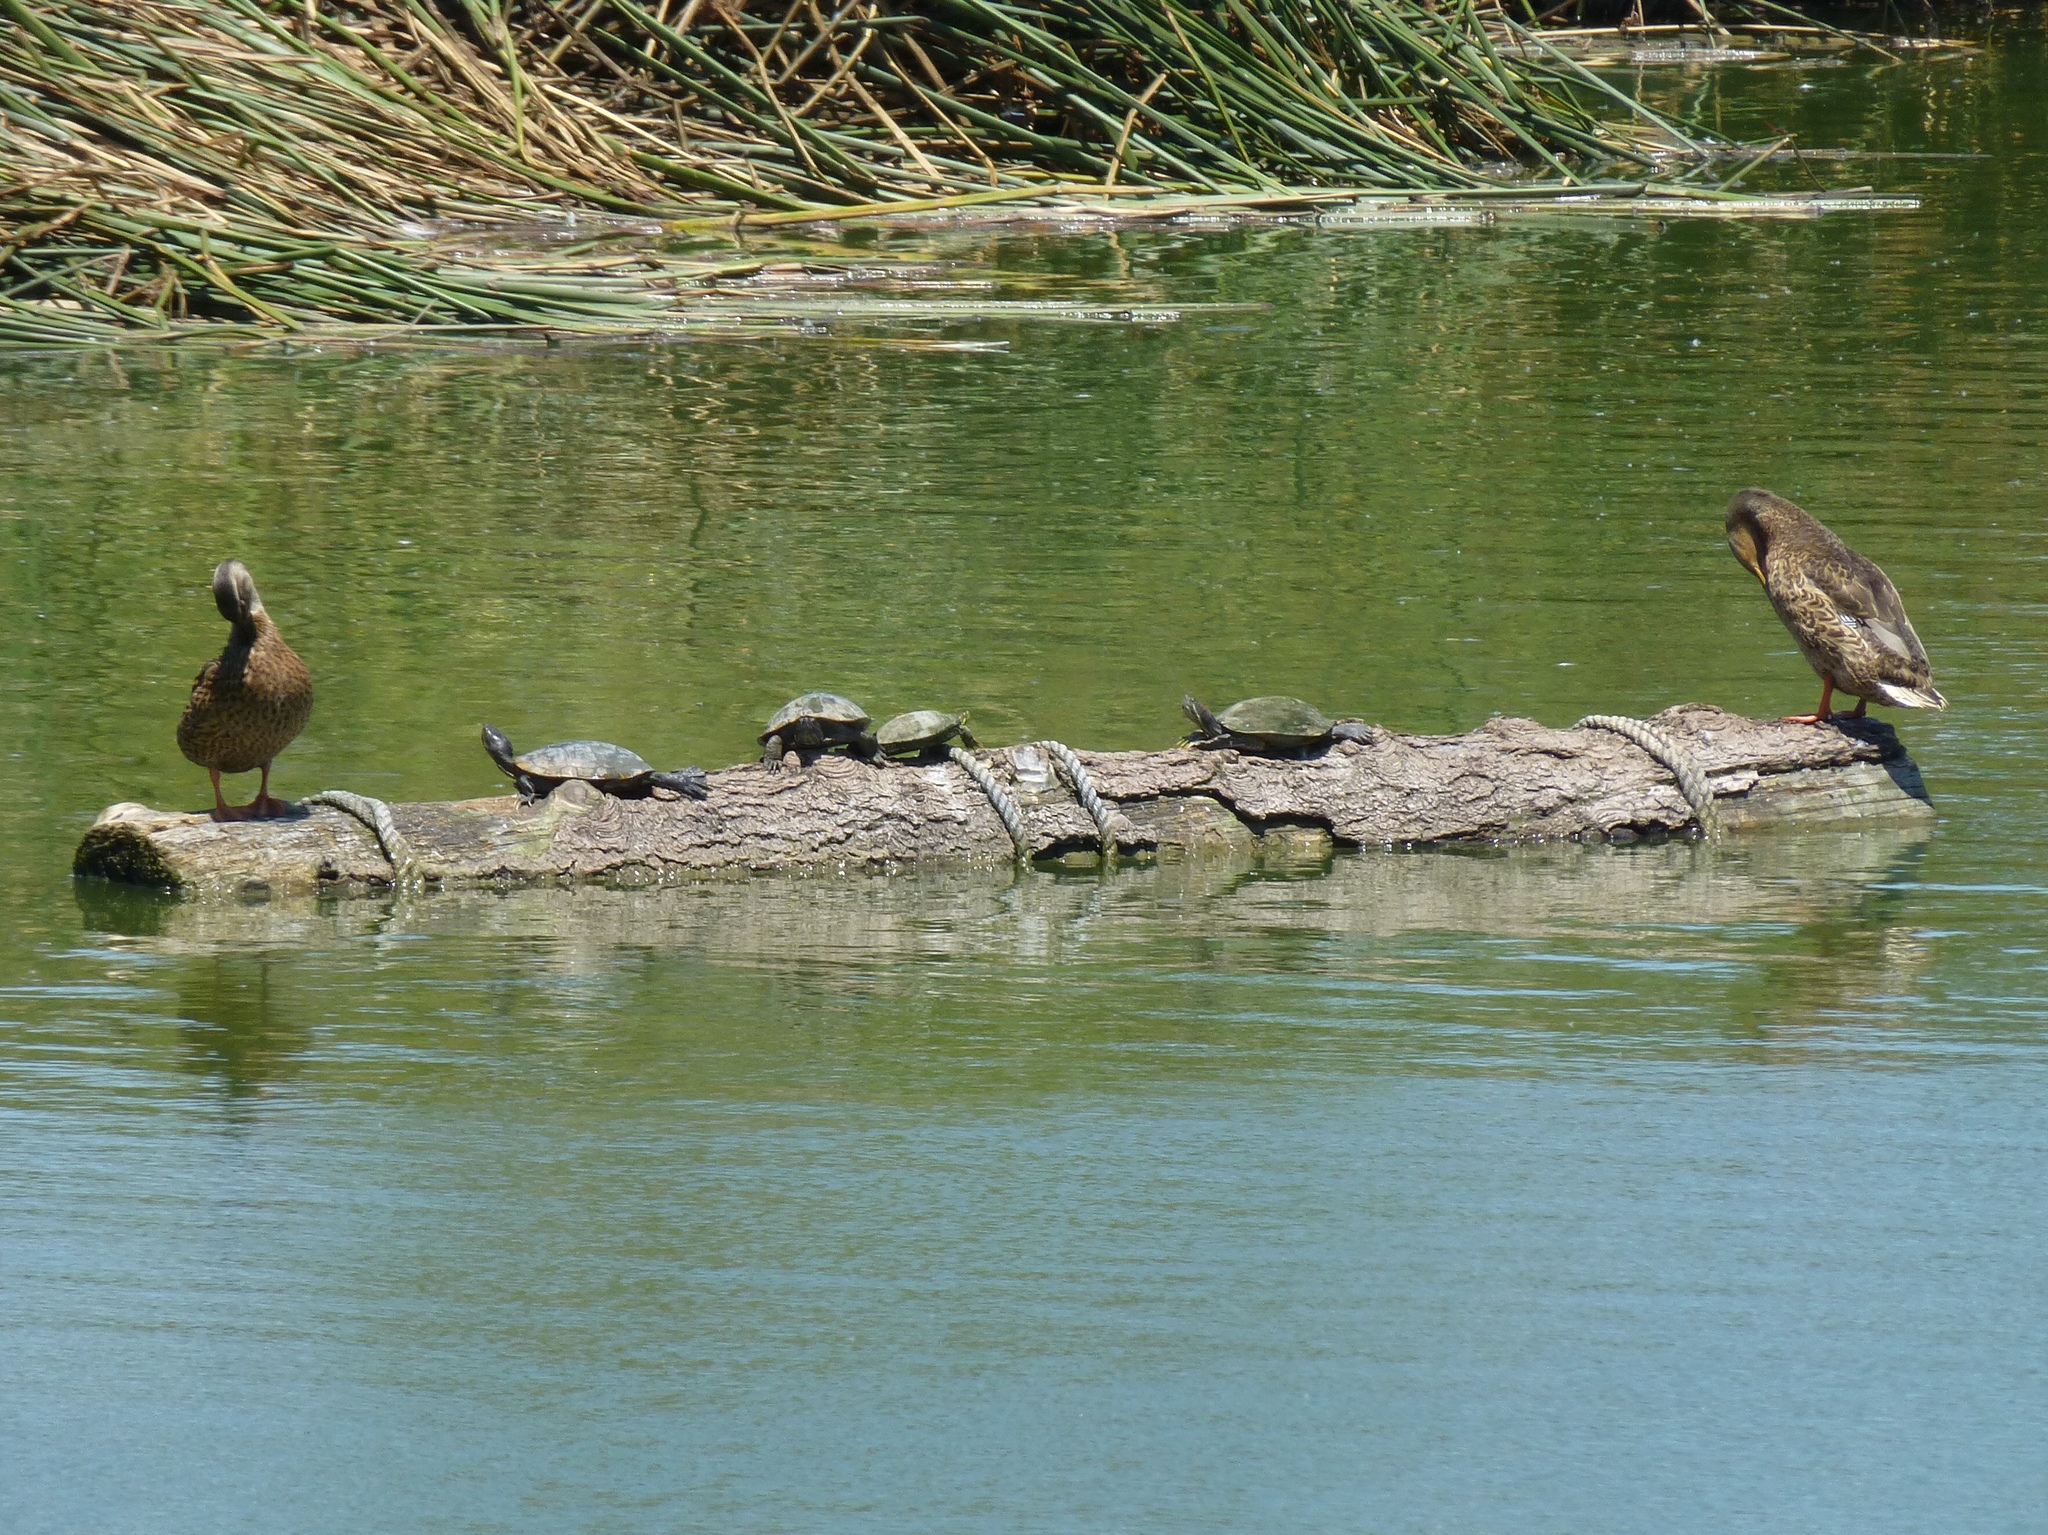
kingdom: Animalia
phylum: Chordata
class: Aves
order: Anseriformes
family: Anatidae
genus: Anas
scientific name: Anas platyrhynchos
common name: Mallard
